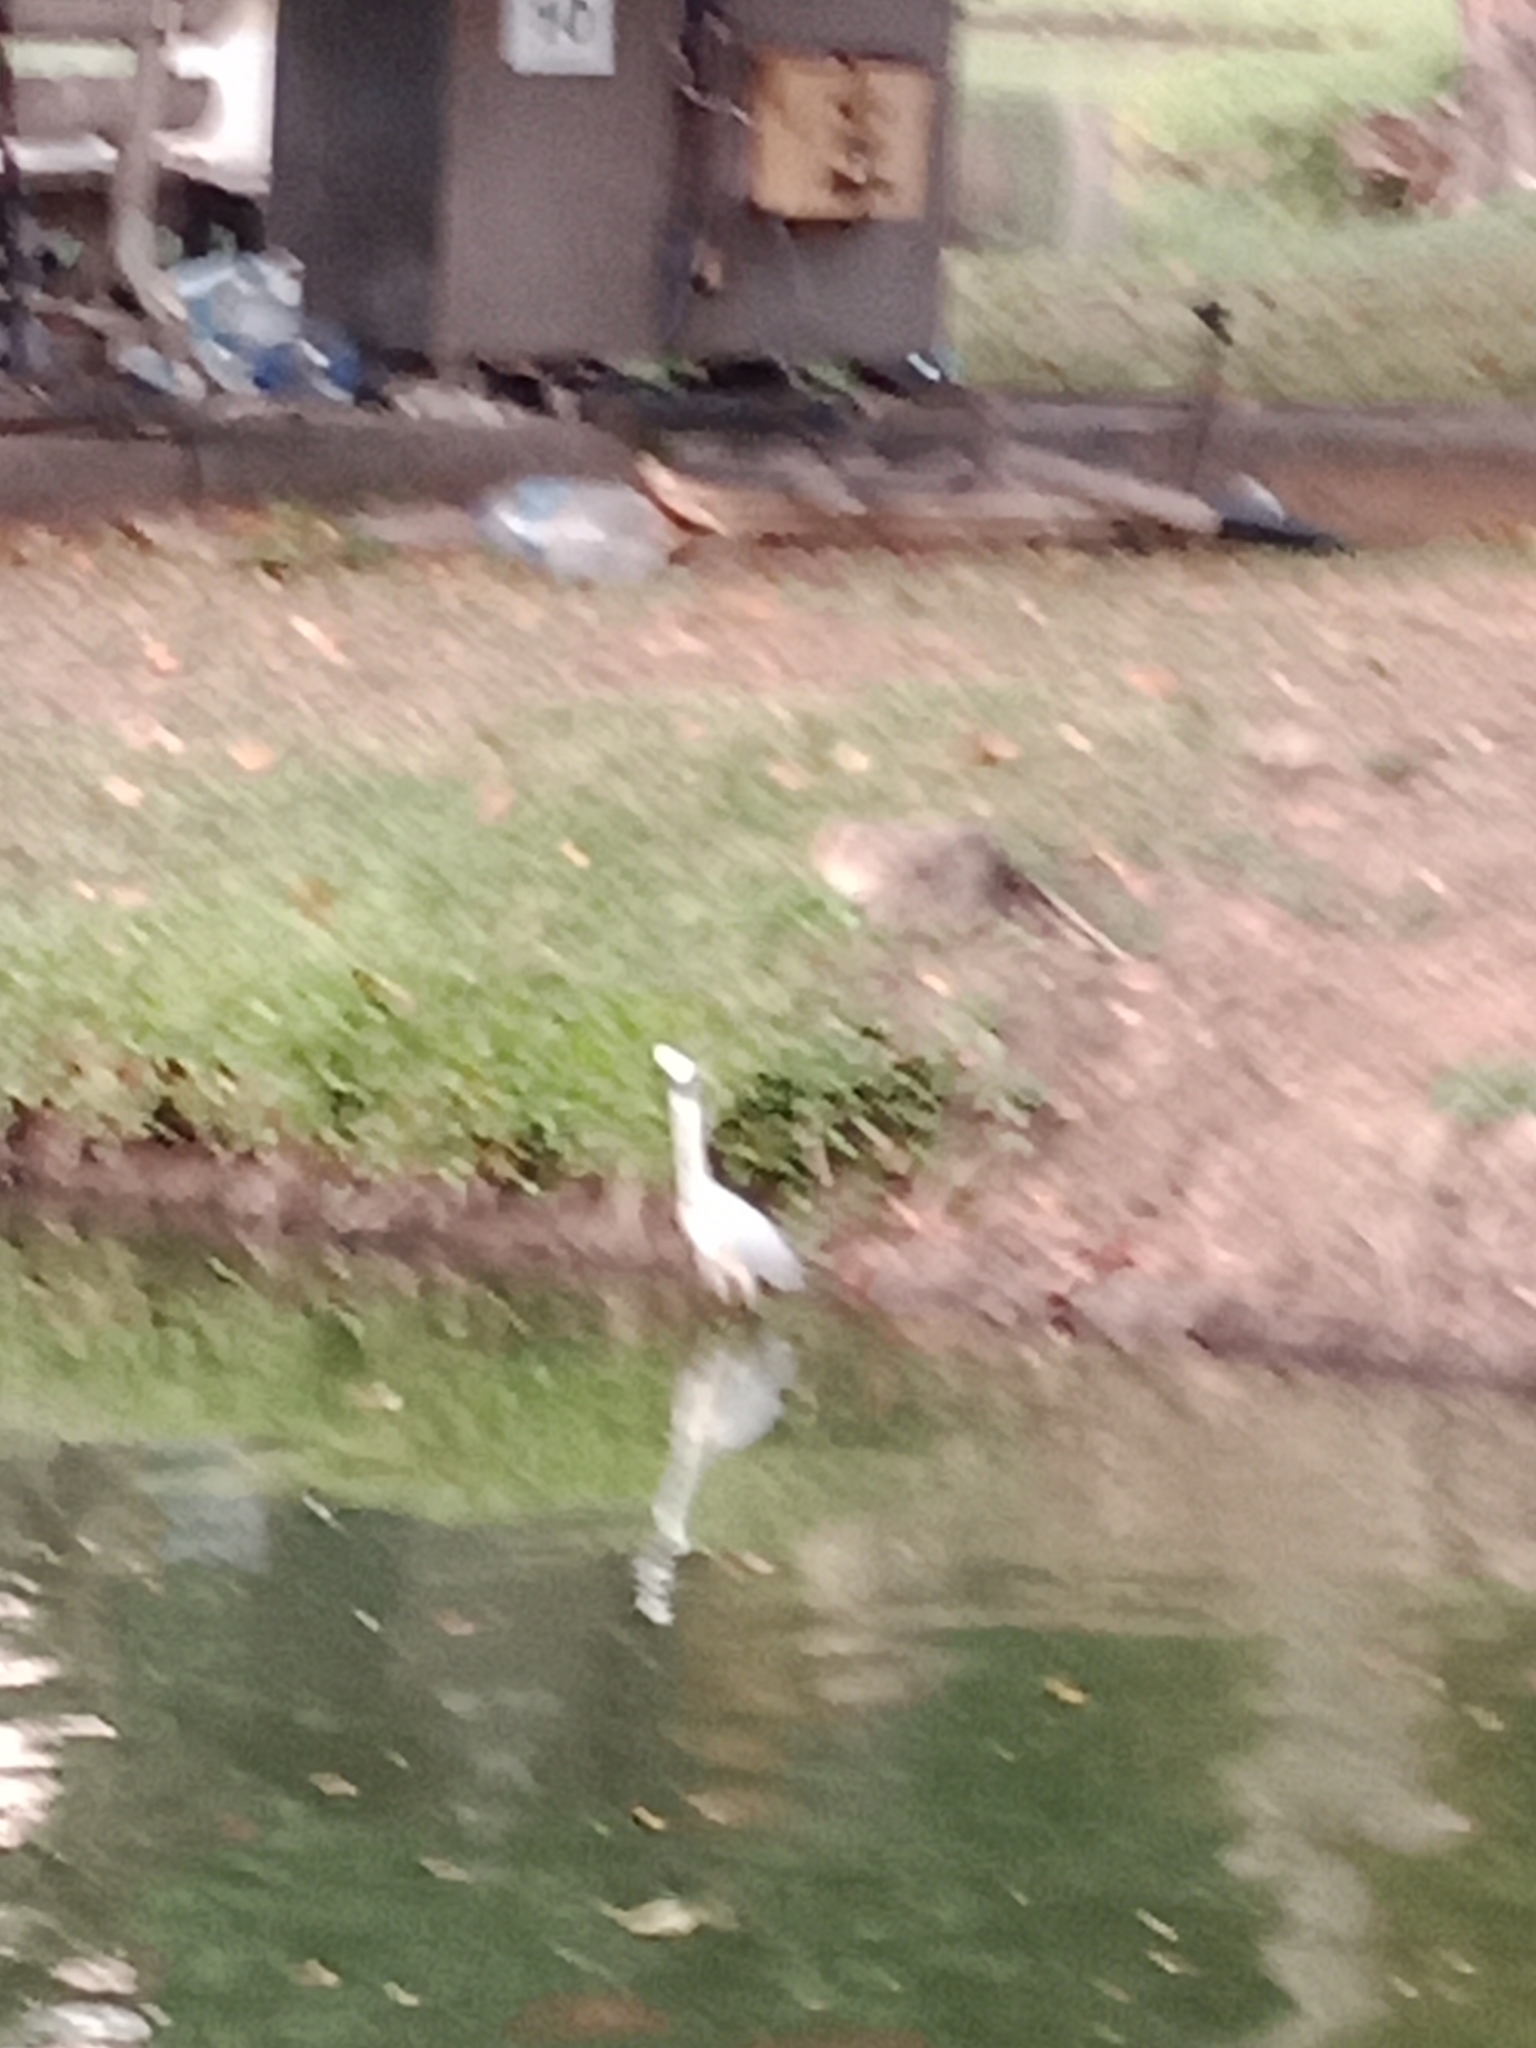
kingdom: Animalia
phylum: Chordata
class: Aves
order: Pelecaniformes
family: Ardeidae
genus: Egretta
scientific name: Egretta garzetta
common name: Little egret
